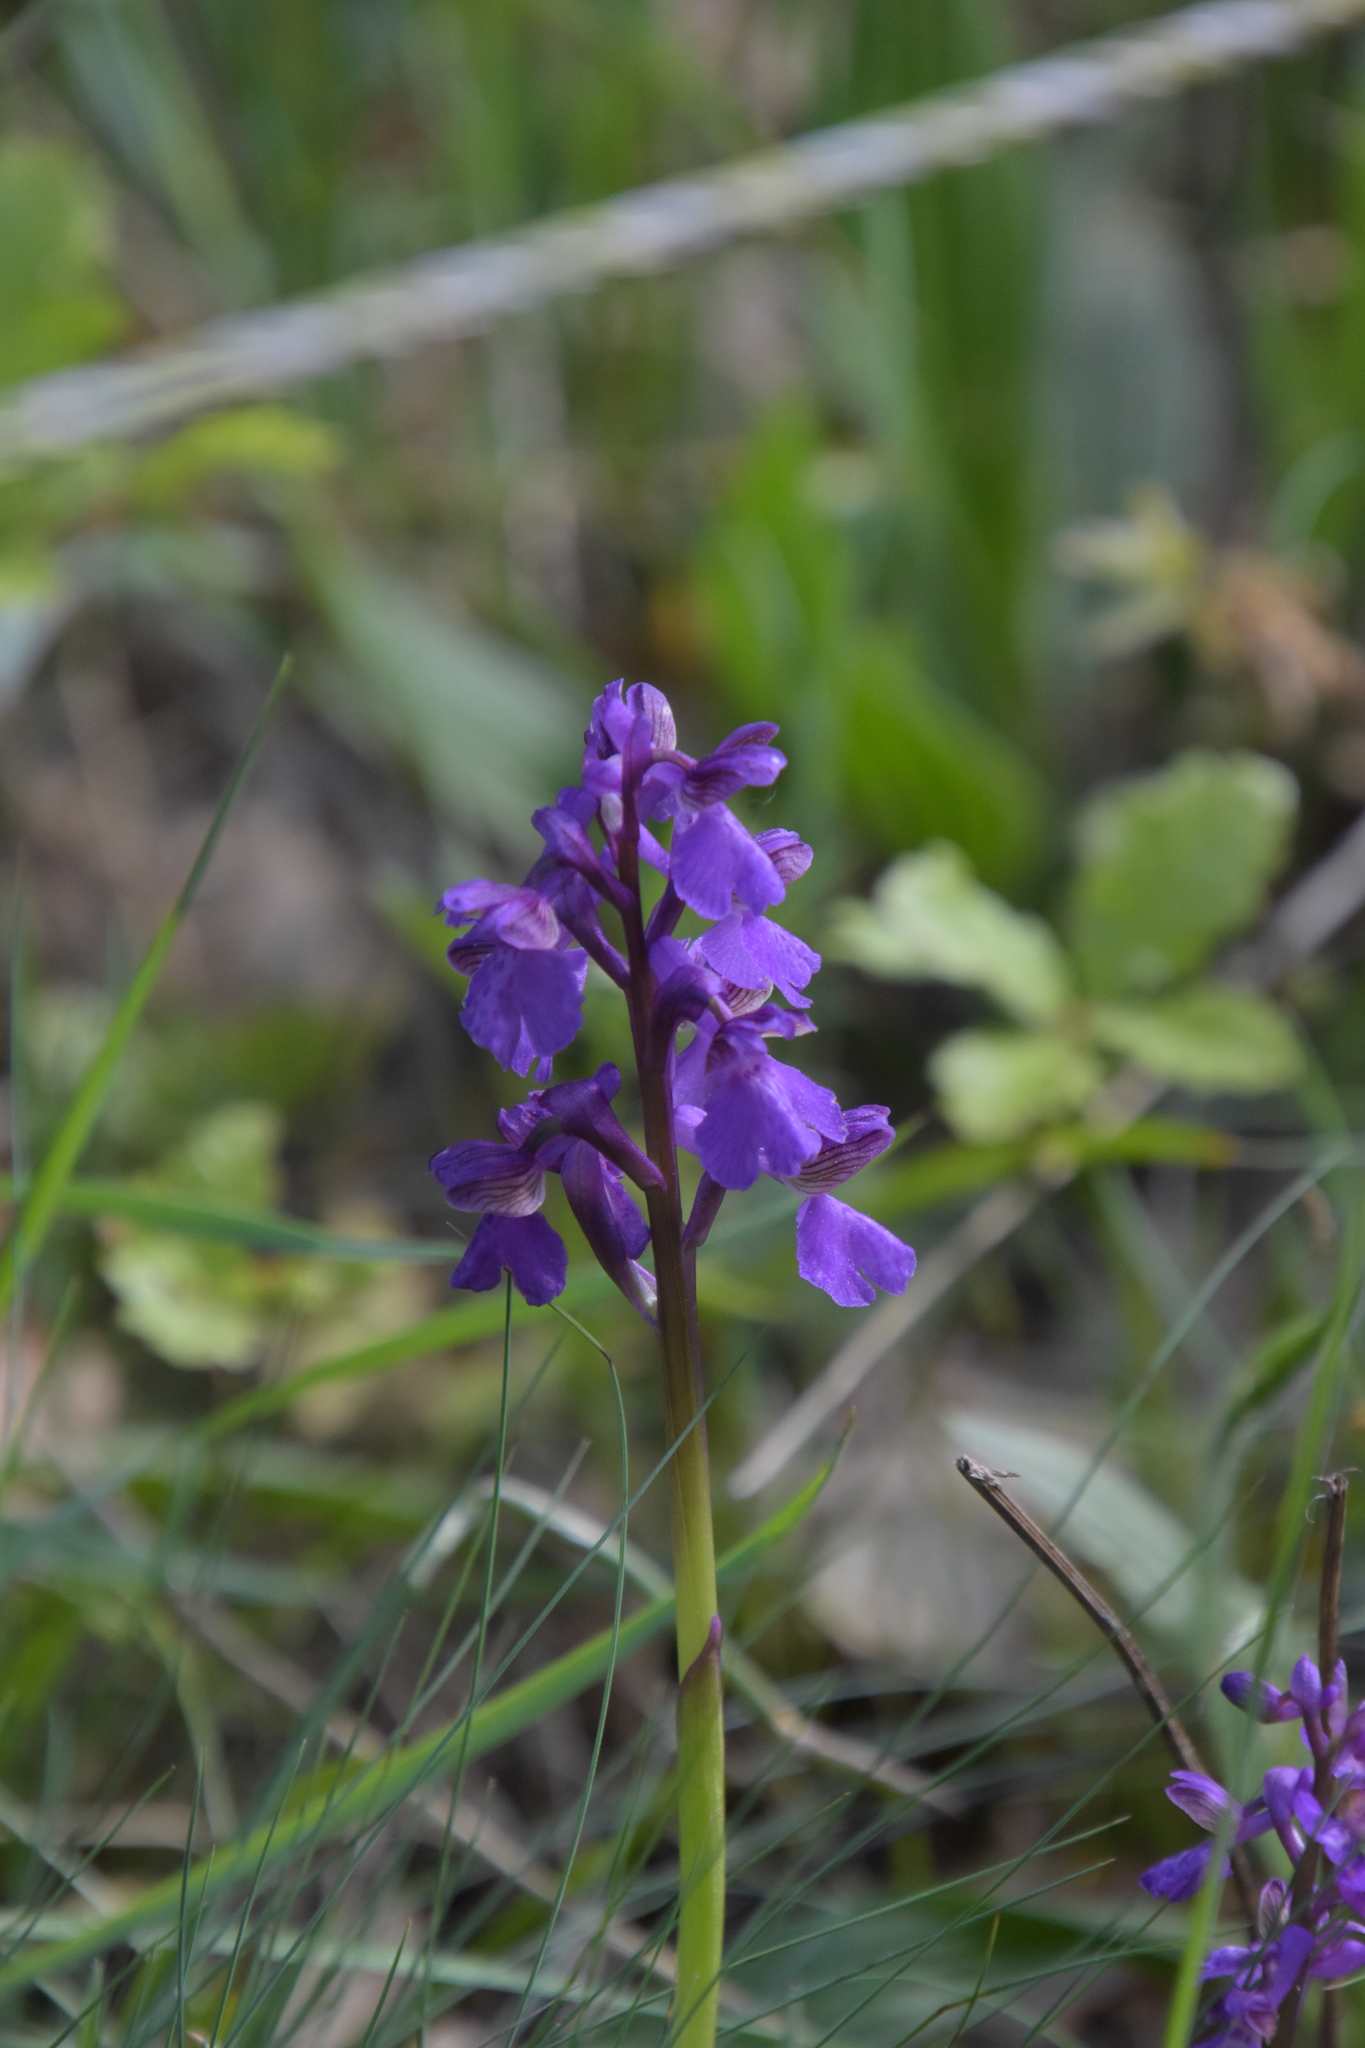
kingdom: Plantae
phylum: Tracheophyta
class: Liliopsida
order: Asparagales
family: Orchidaceae
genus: Anacamptis
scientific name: Anacamptis morio
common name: Green-winged orchid
